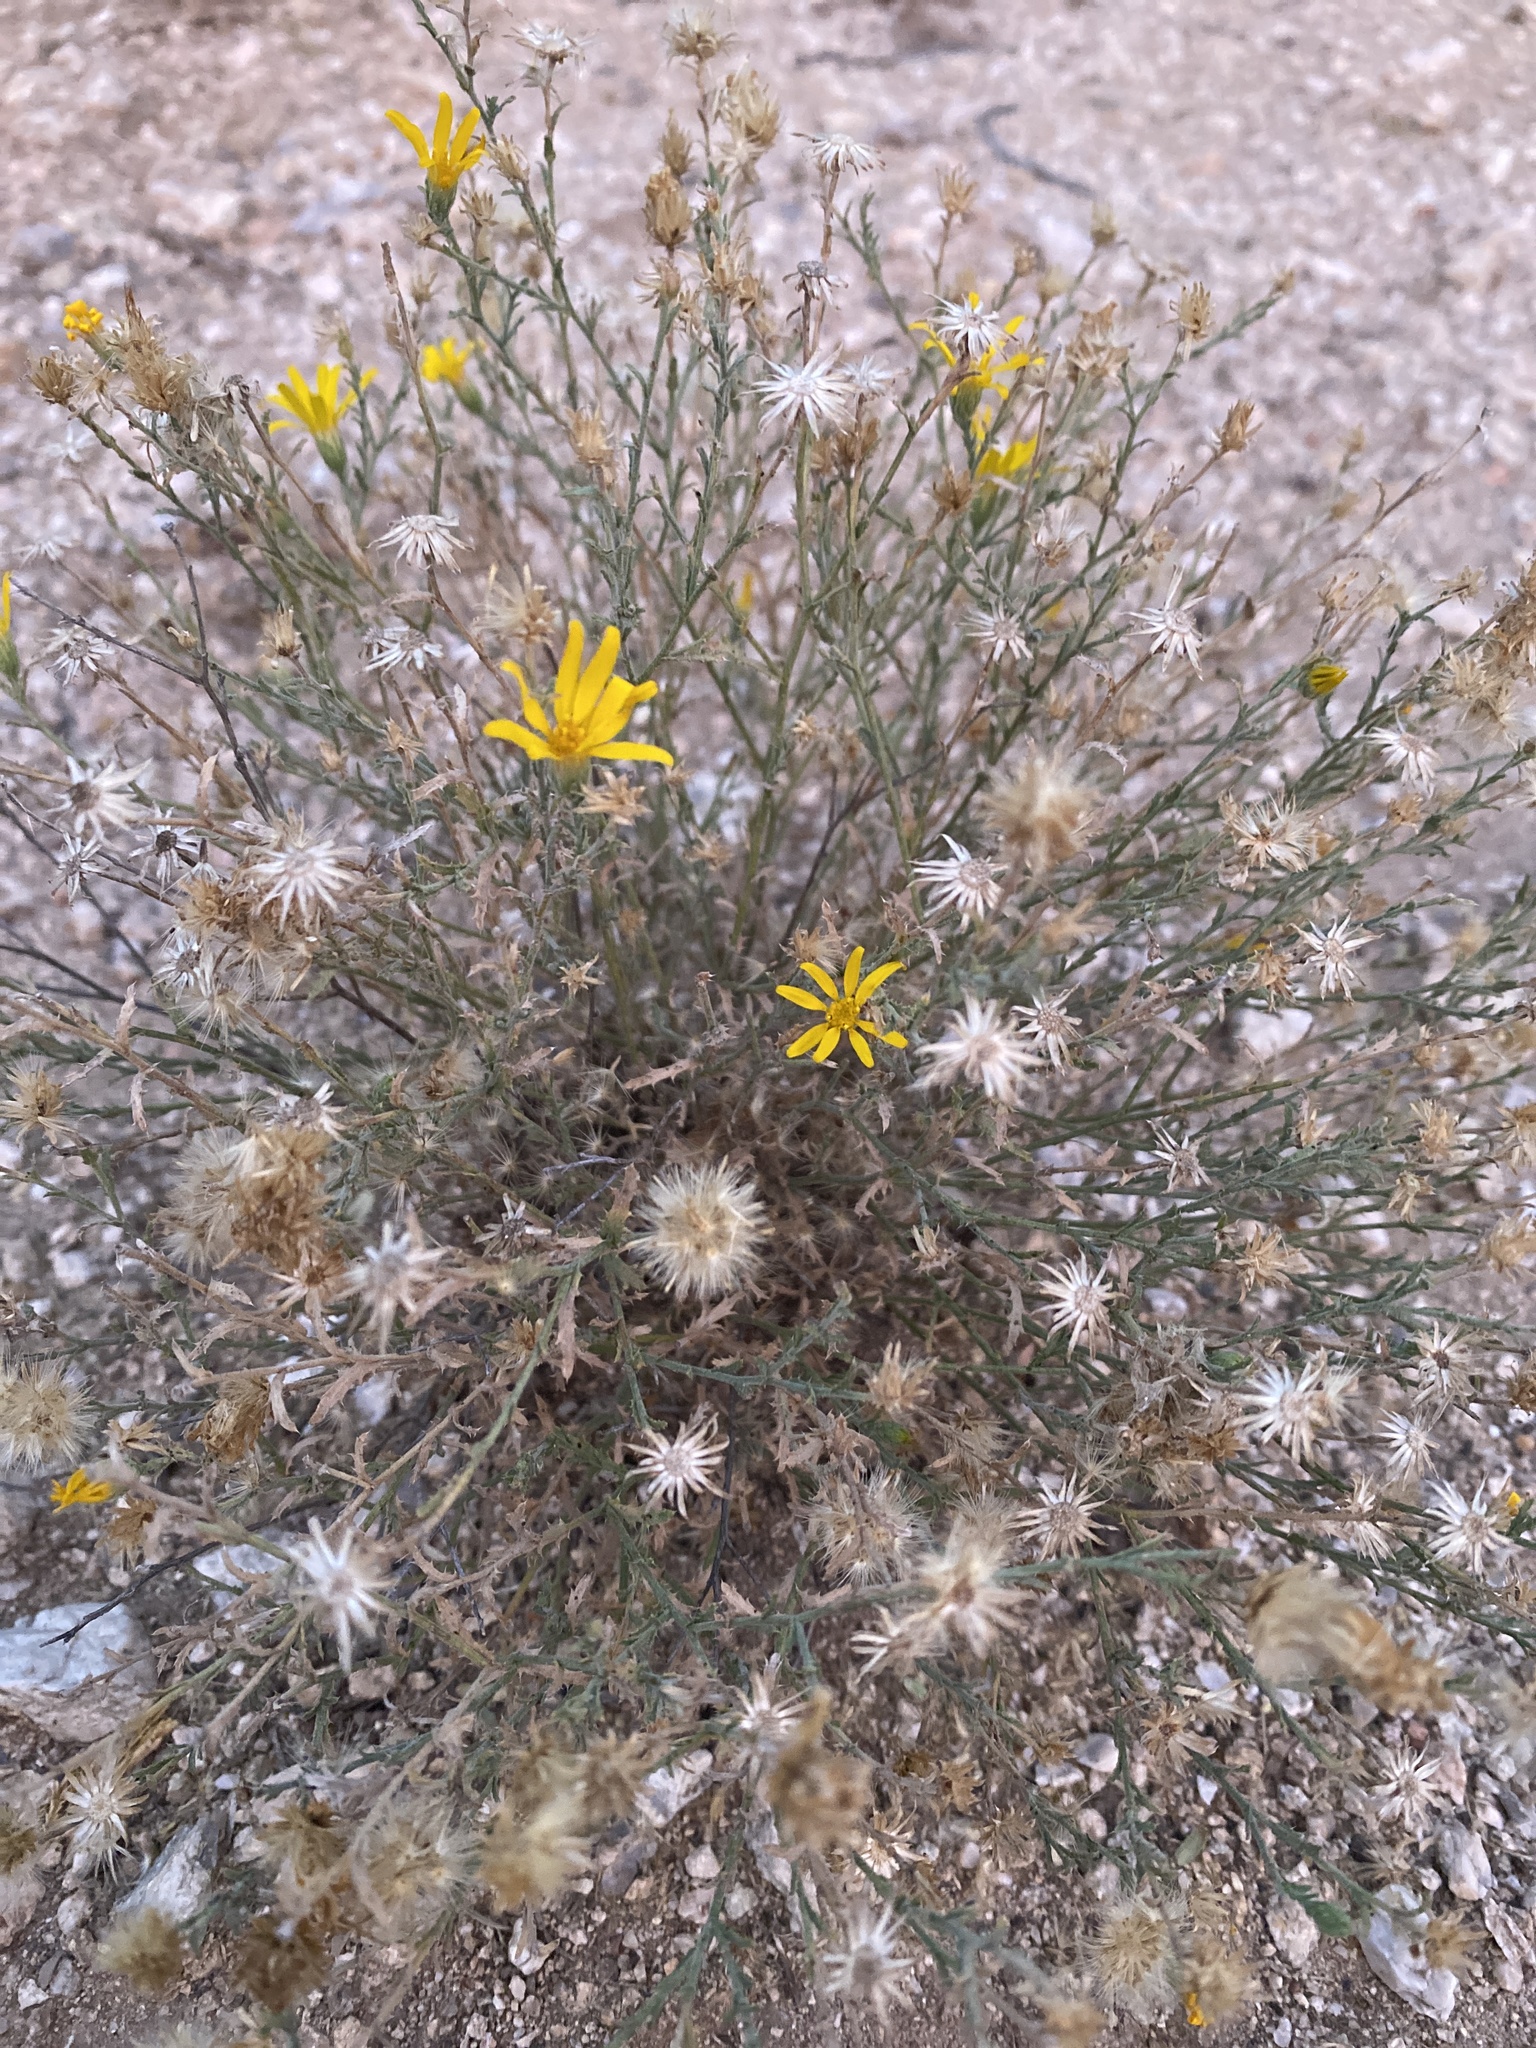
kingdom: Plantae
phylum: Tracheophyta
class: Magnoliopsida
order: Asterales
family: Asteraceae
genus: Xanthisma
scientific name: Xanthisma gracile
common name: Slender goldenweed
